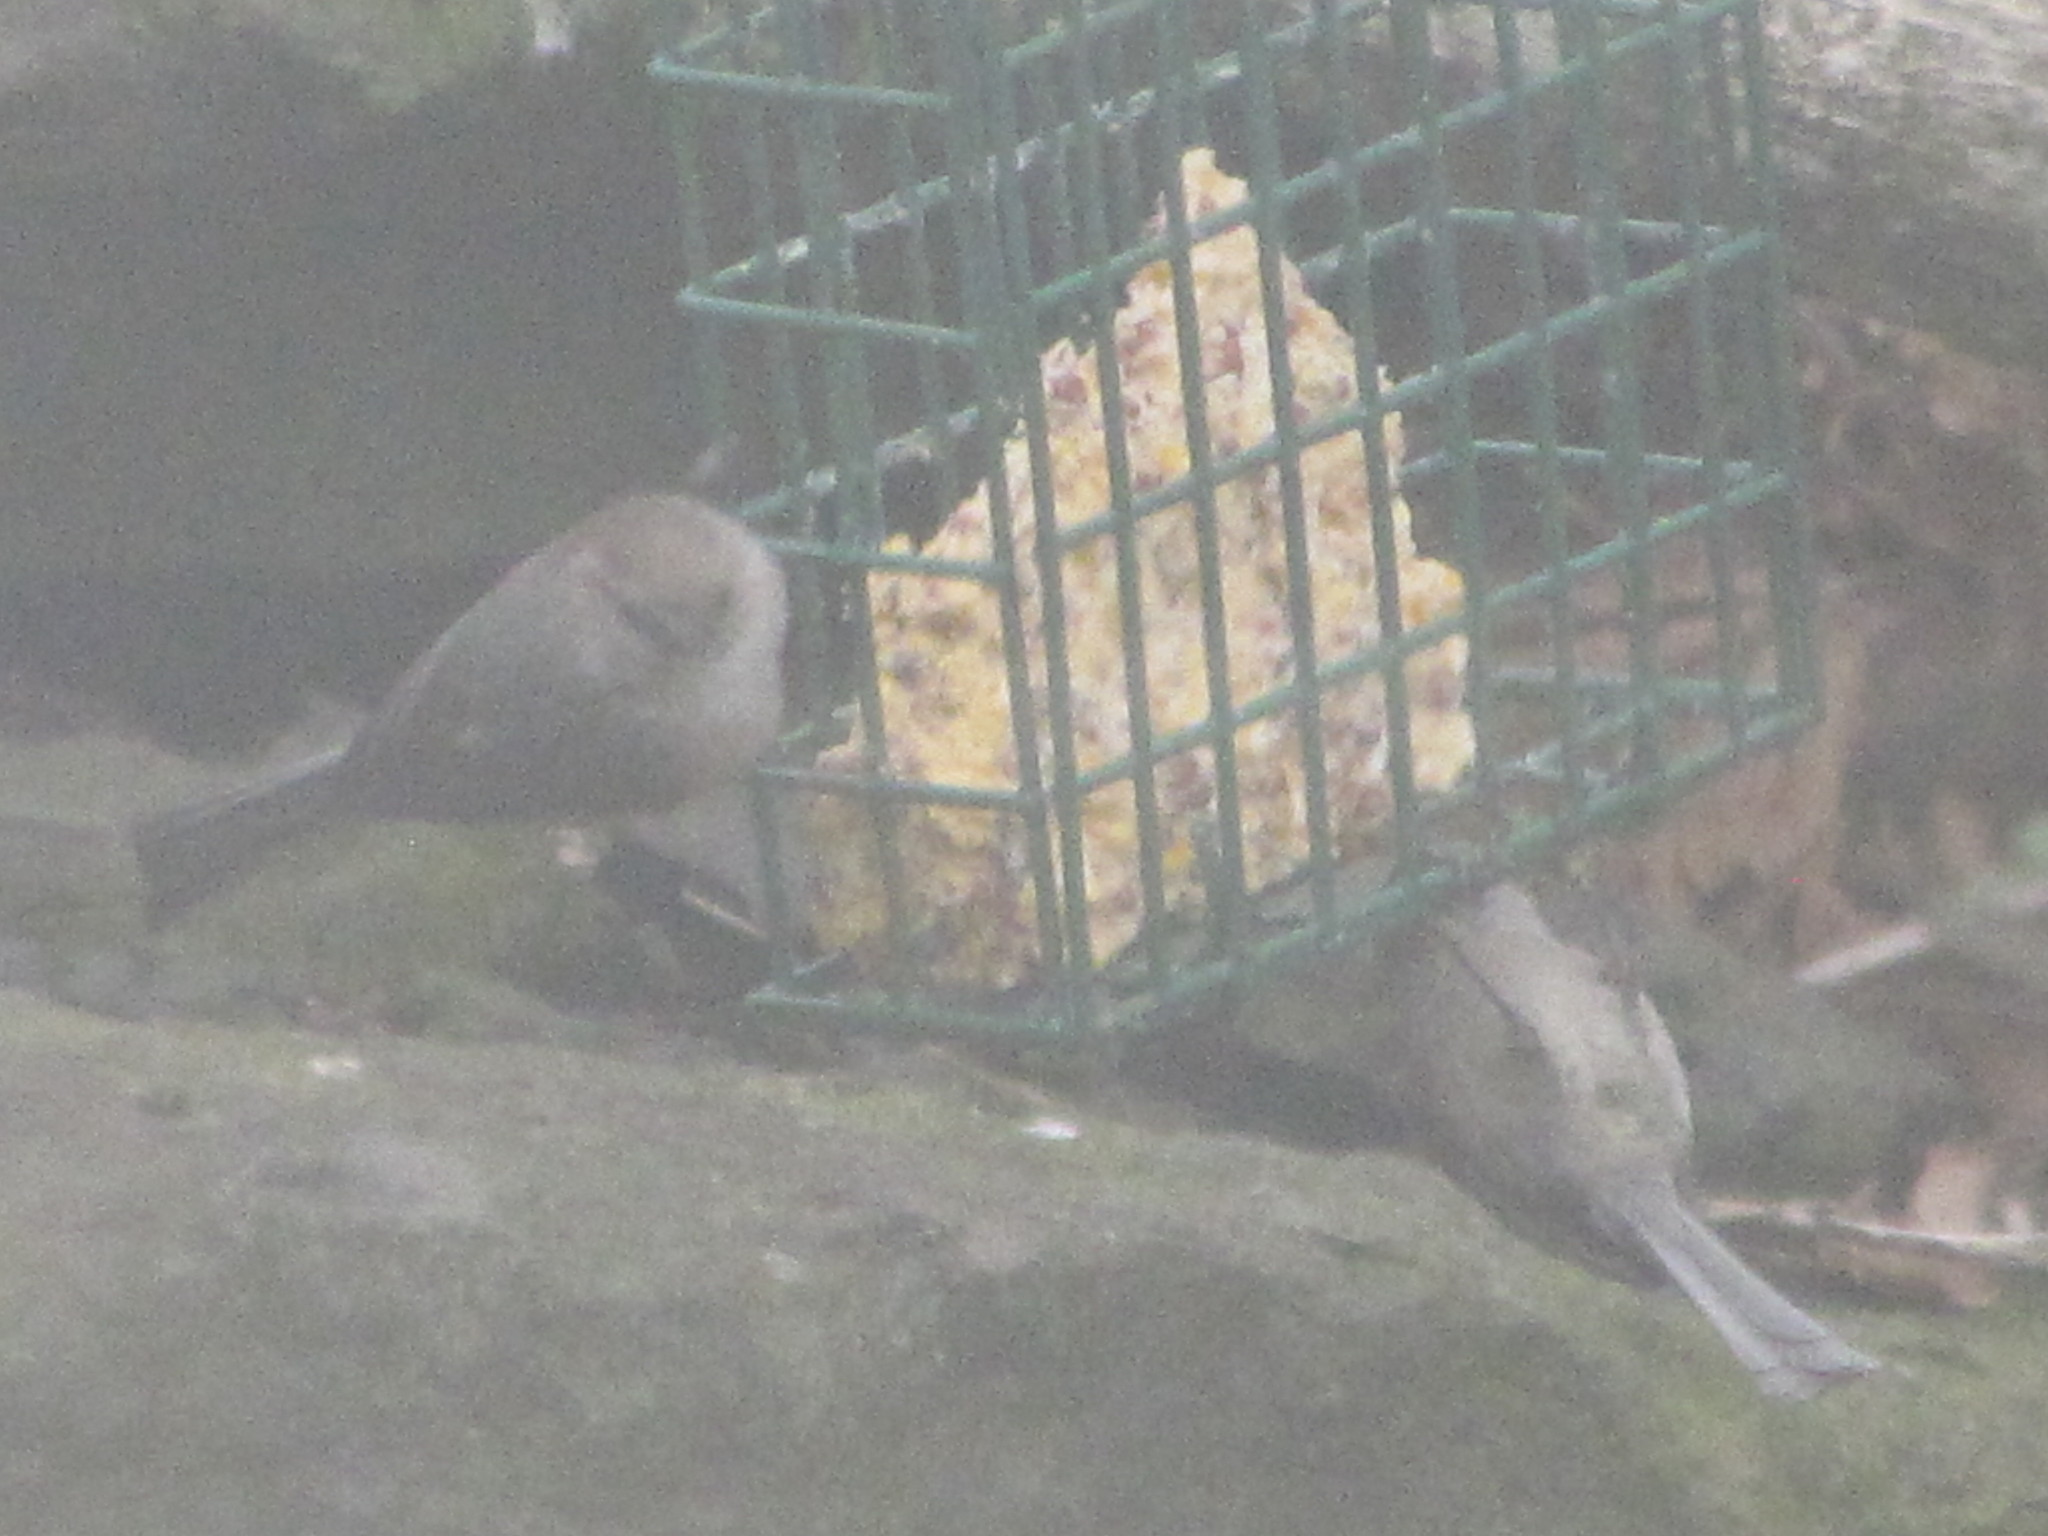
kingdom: Animalia
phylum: Chordata
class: Aves
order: Passeriformes
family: Aegithalidae
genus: Psaltriparus
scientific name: Psaltriparus minimus
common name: American bushtit
